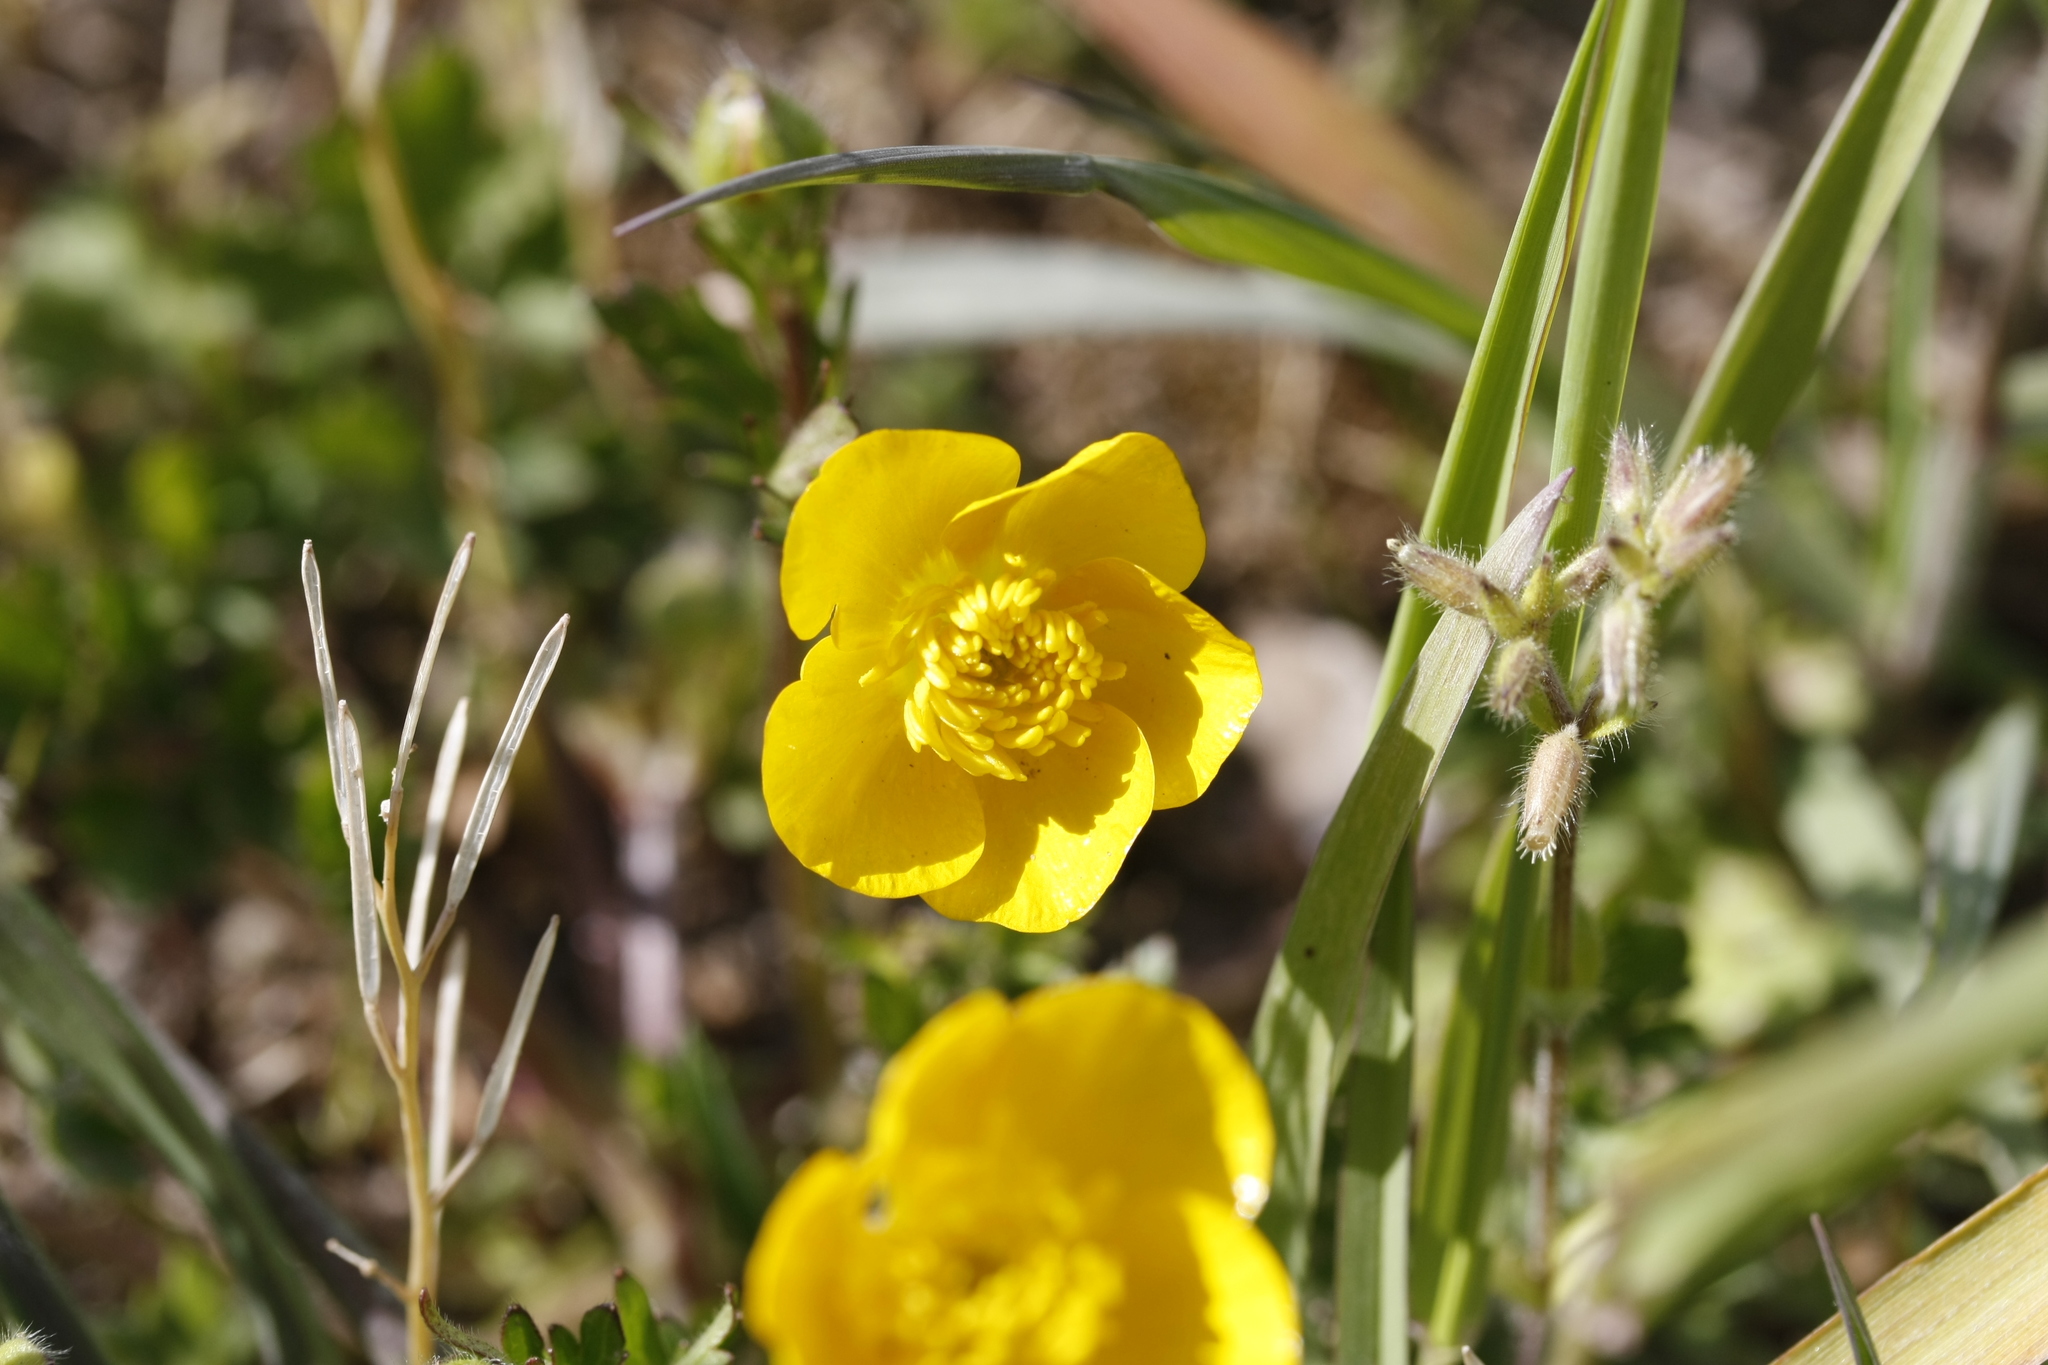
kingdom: Plantae
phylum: Tracheophyta
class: Magnoliopsida
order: Ranunculales
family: Ranunculaceae
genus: Ranunculus
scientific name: Ranunculus bulbosus
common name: Bulbous buttercup
